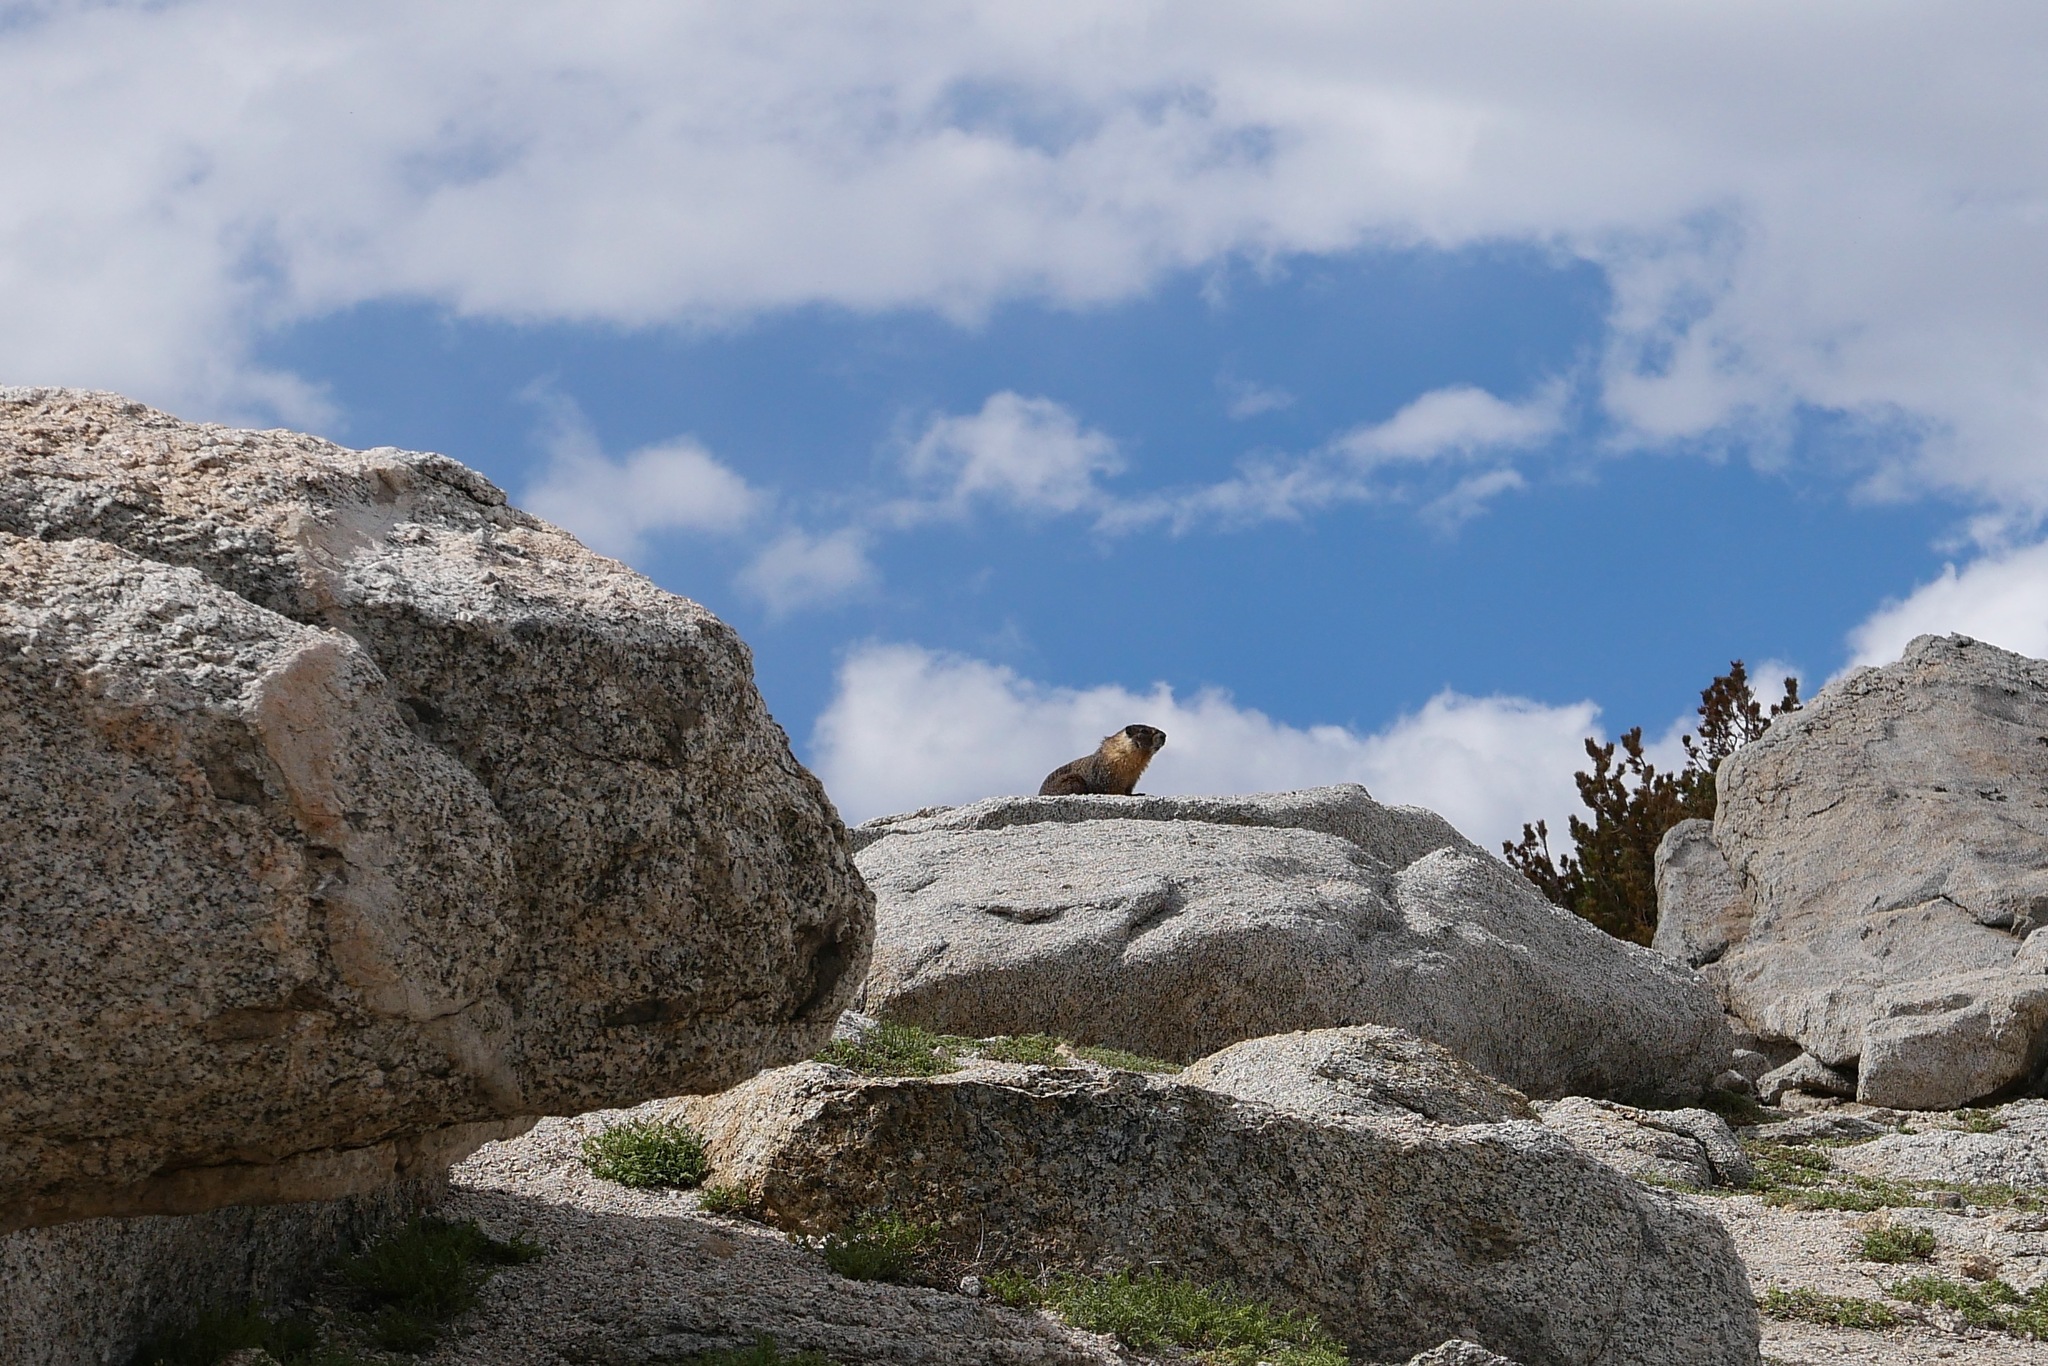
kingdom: Animalia
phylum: Chordata
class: Mammalia
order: Rodentia
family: Sciuridae
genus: Marmota
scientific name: Marmota flaviventris
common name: Yellow-bellied marmot
